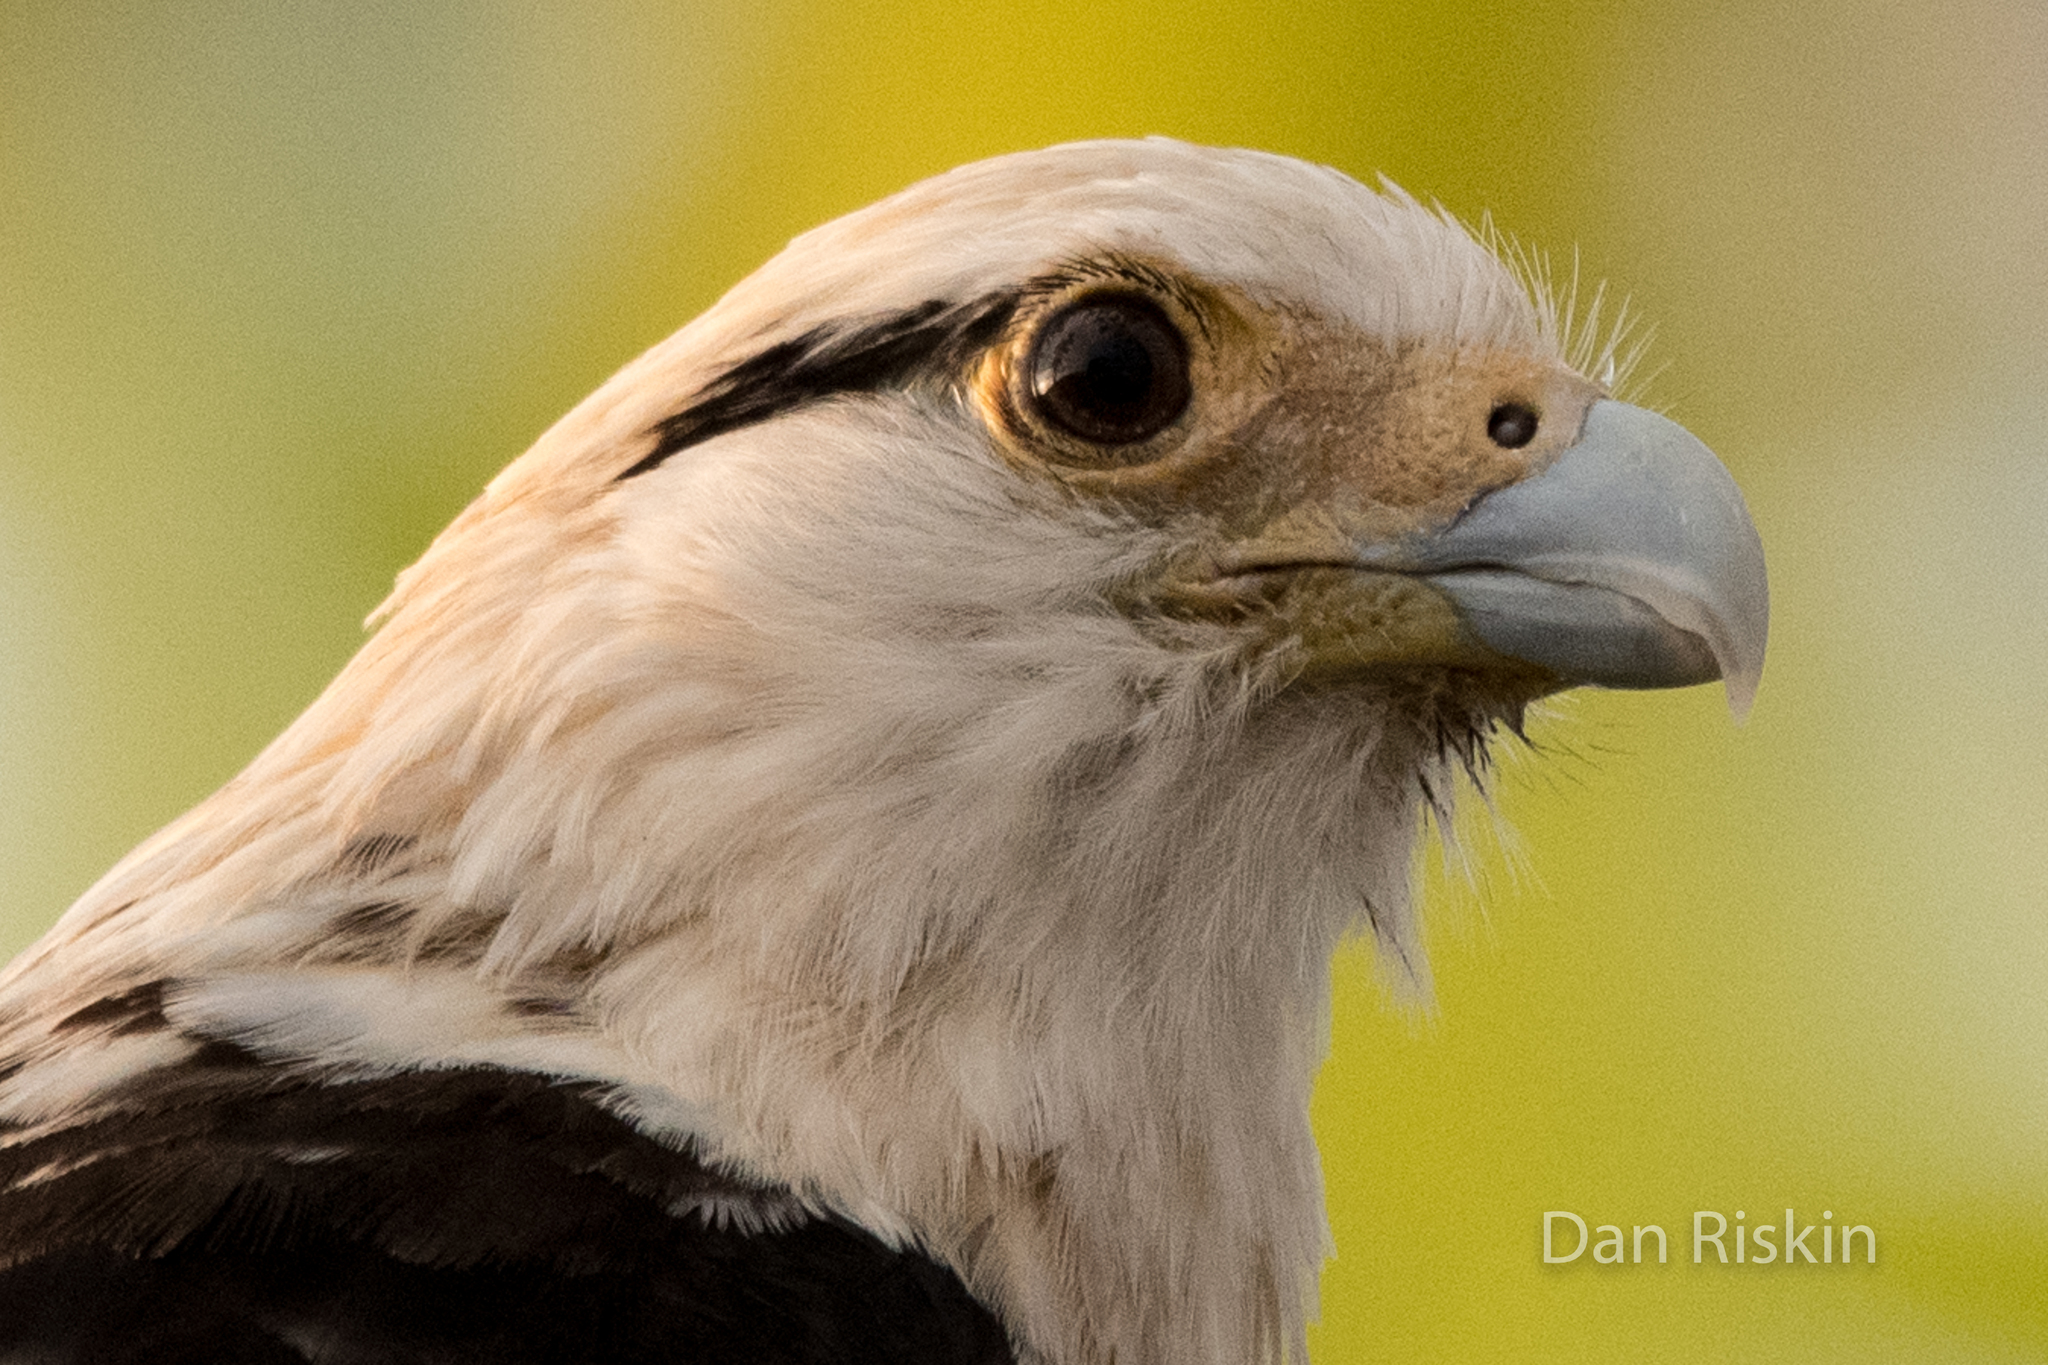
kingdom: Animalia
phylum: Chordata
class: Aves
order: Falconiformes
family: Falconidae
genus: Daptrius
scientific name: Daptrius
